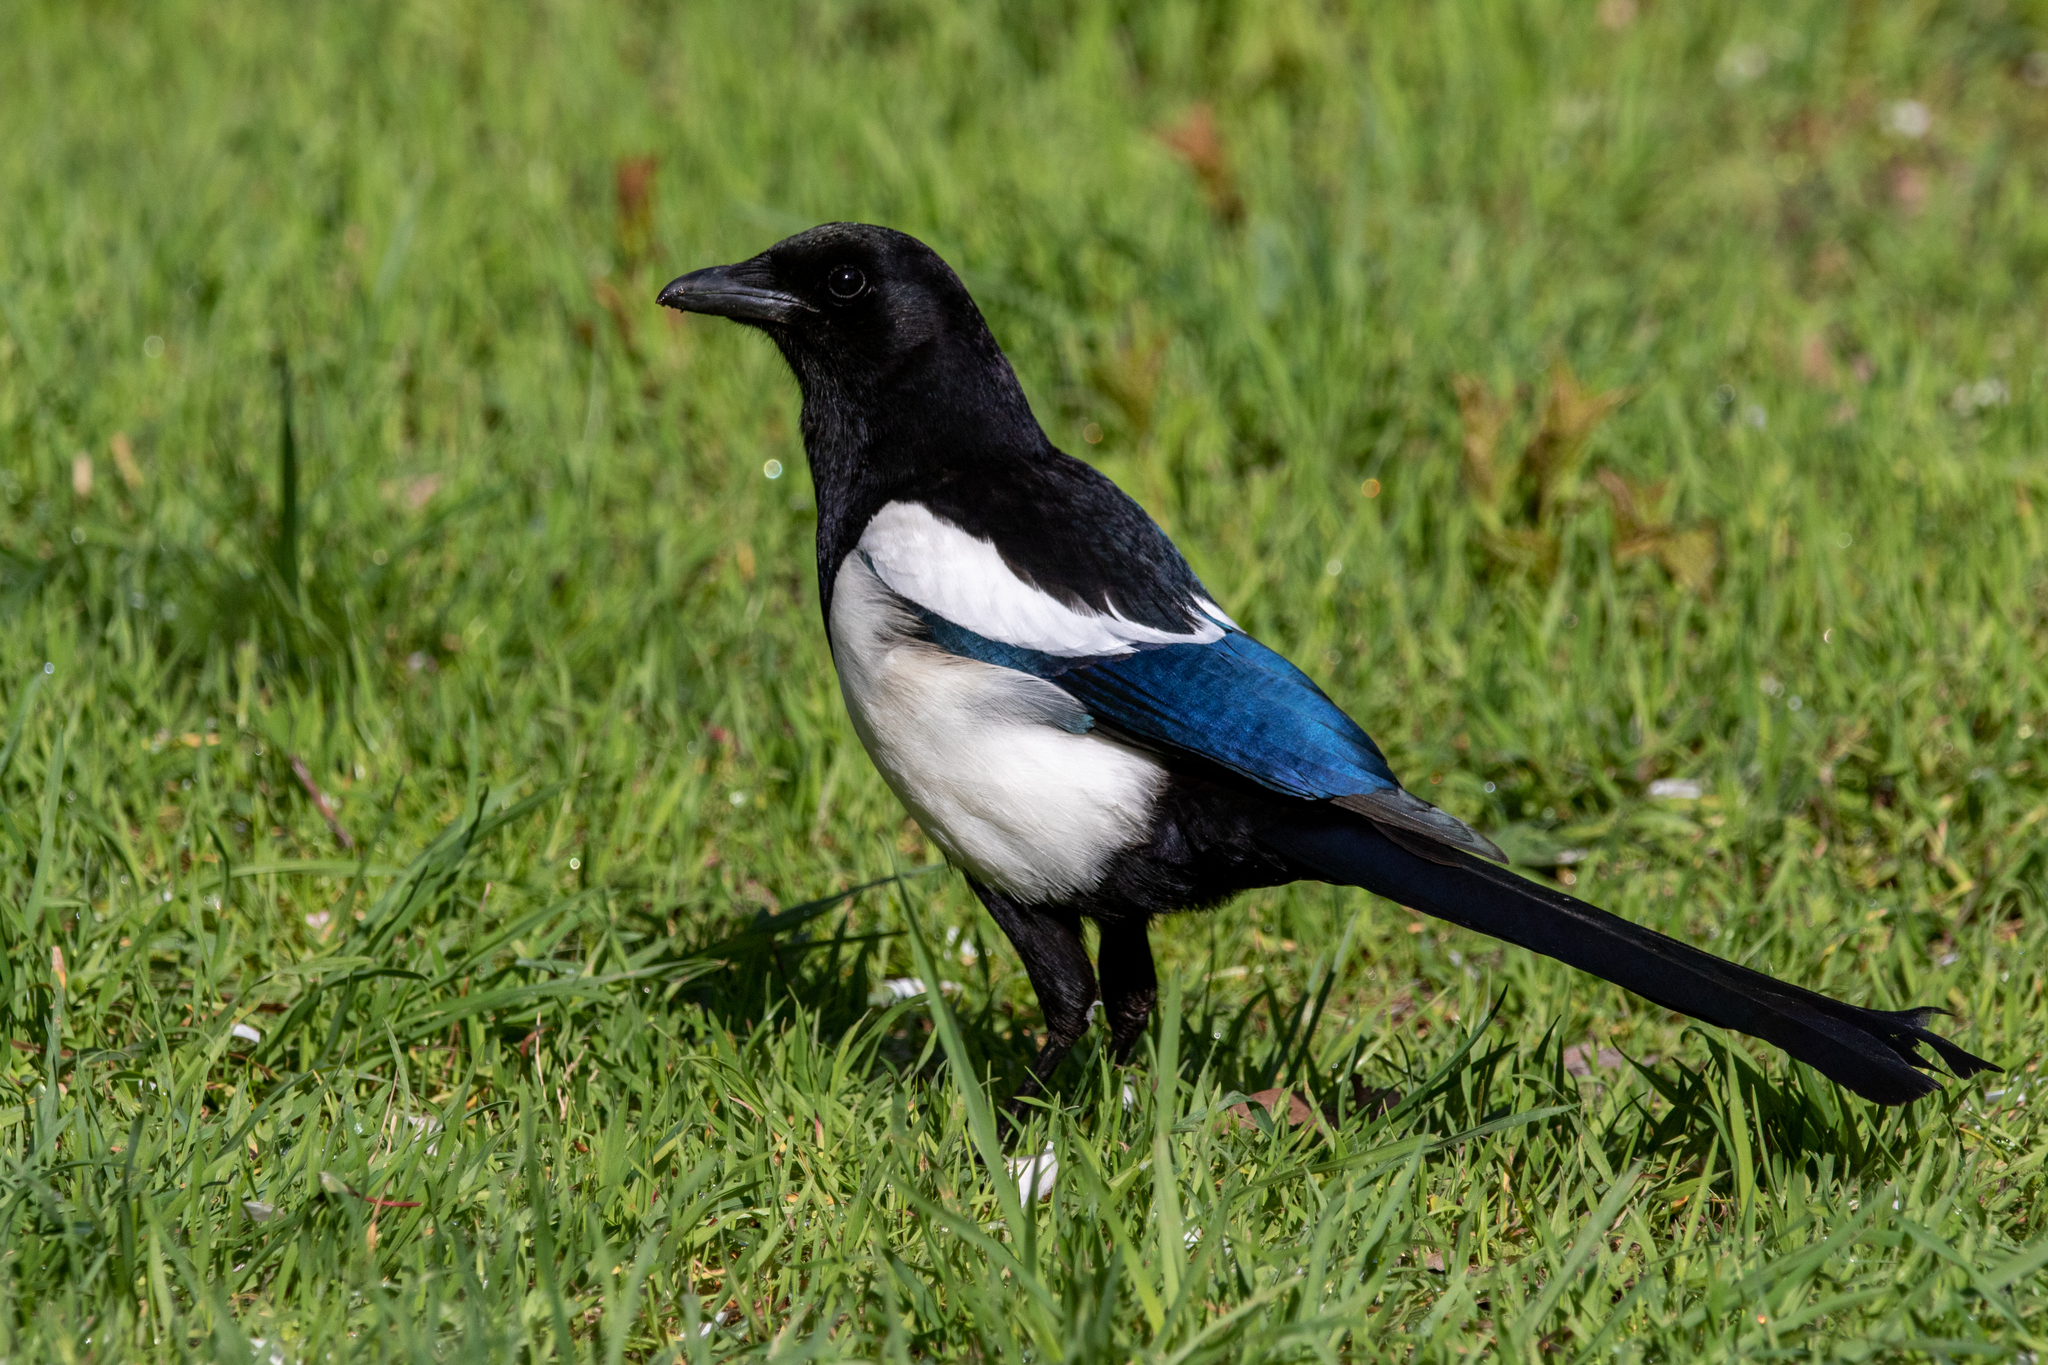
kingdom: Animalia
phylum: Chordata
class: Aves
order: Passeriformes
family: Corvidae
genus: Pica
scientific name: Pica pica
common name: Eurasian magpie
